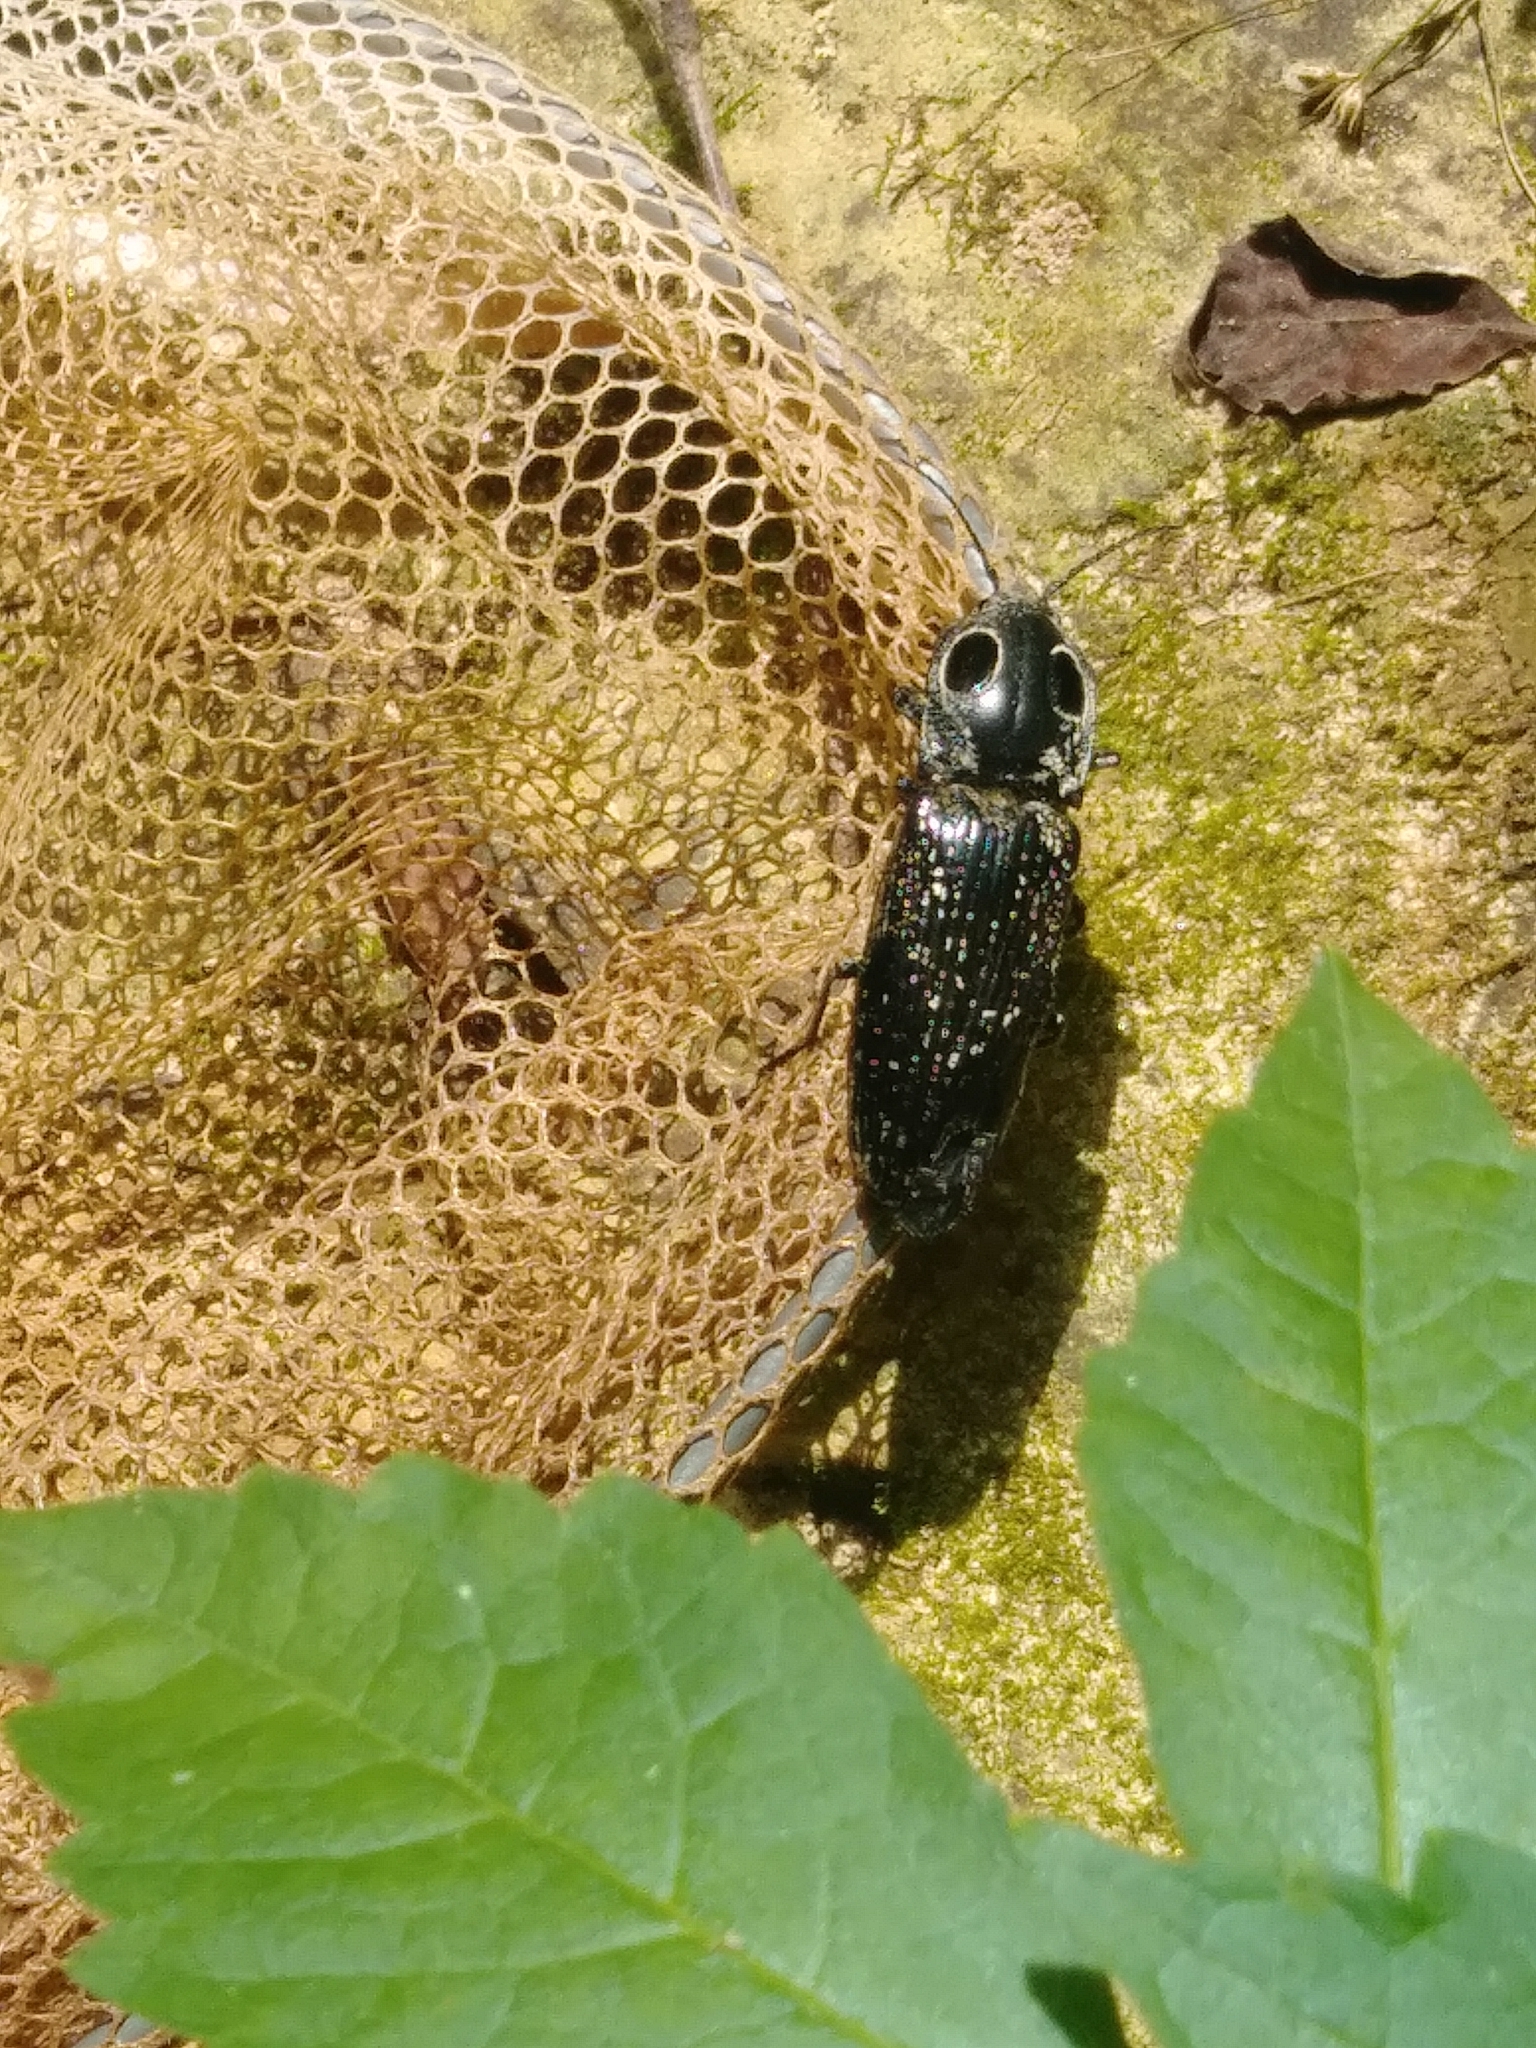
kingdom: Animalia
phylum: Arthropoda
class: Insecta
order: Coleoptera
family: Elateridae
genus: Alaus
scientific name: Alaus oculatus
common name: Eastern eyed click beetle
